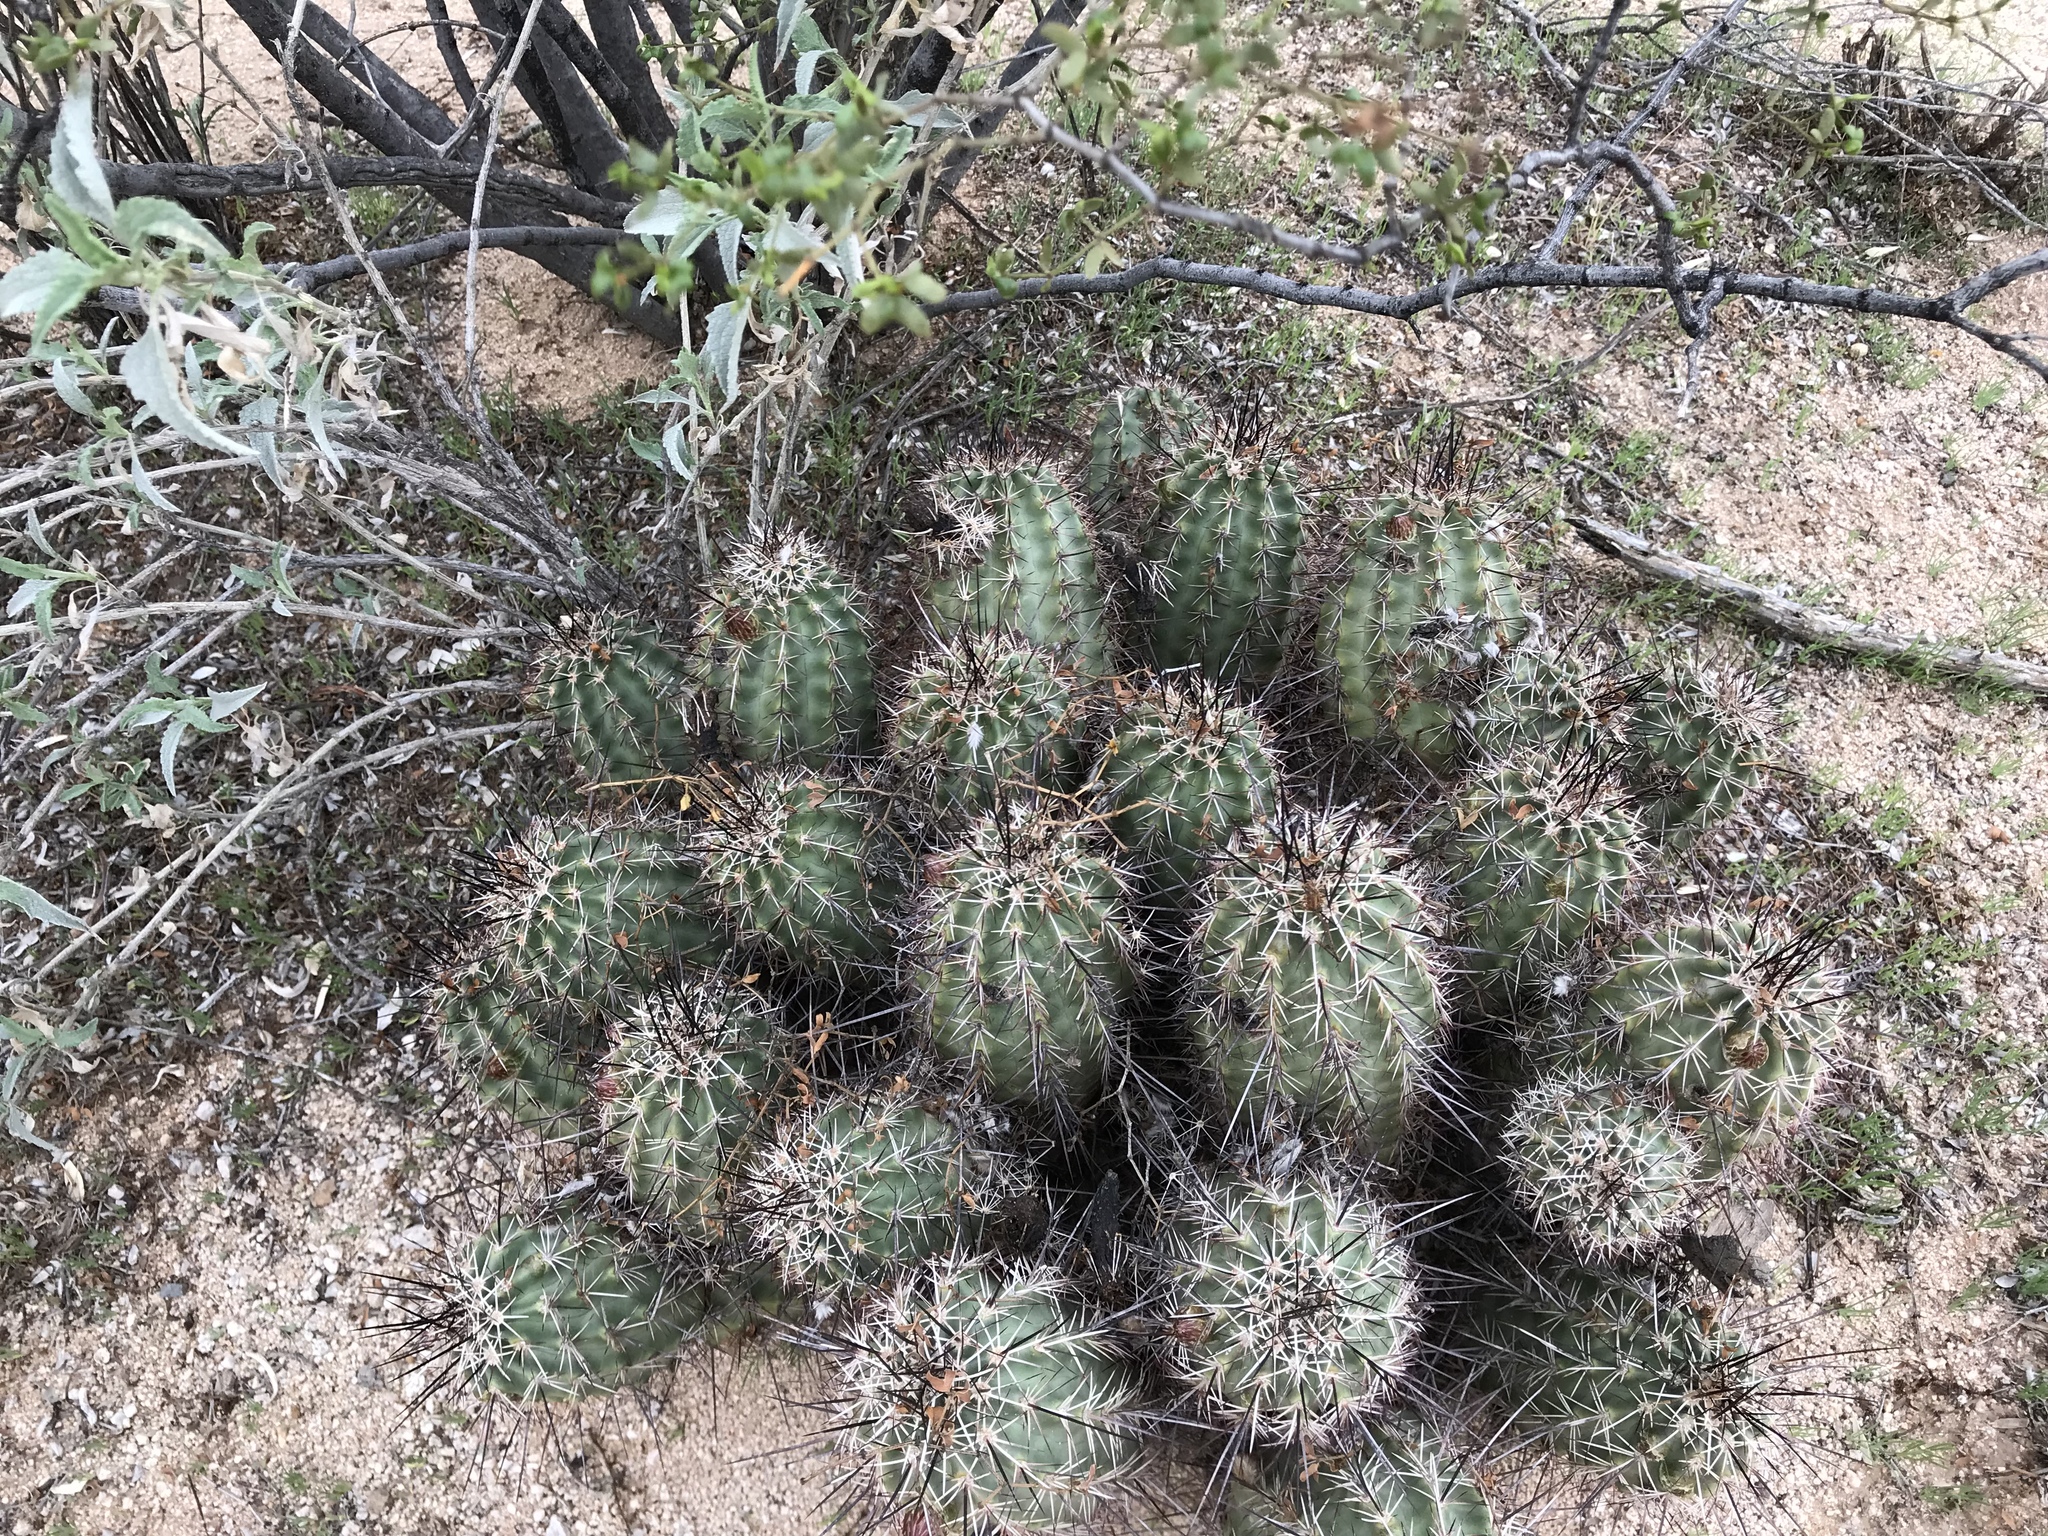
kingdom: Plantae
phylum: Tracheophyta
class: Magnoliopsida
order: Caryophyllales
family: Cactaceae
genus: Echinocereus
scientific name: Echinocereus fasciculatus
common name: Bundle hedgehog
